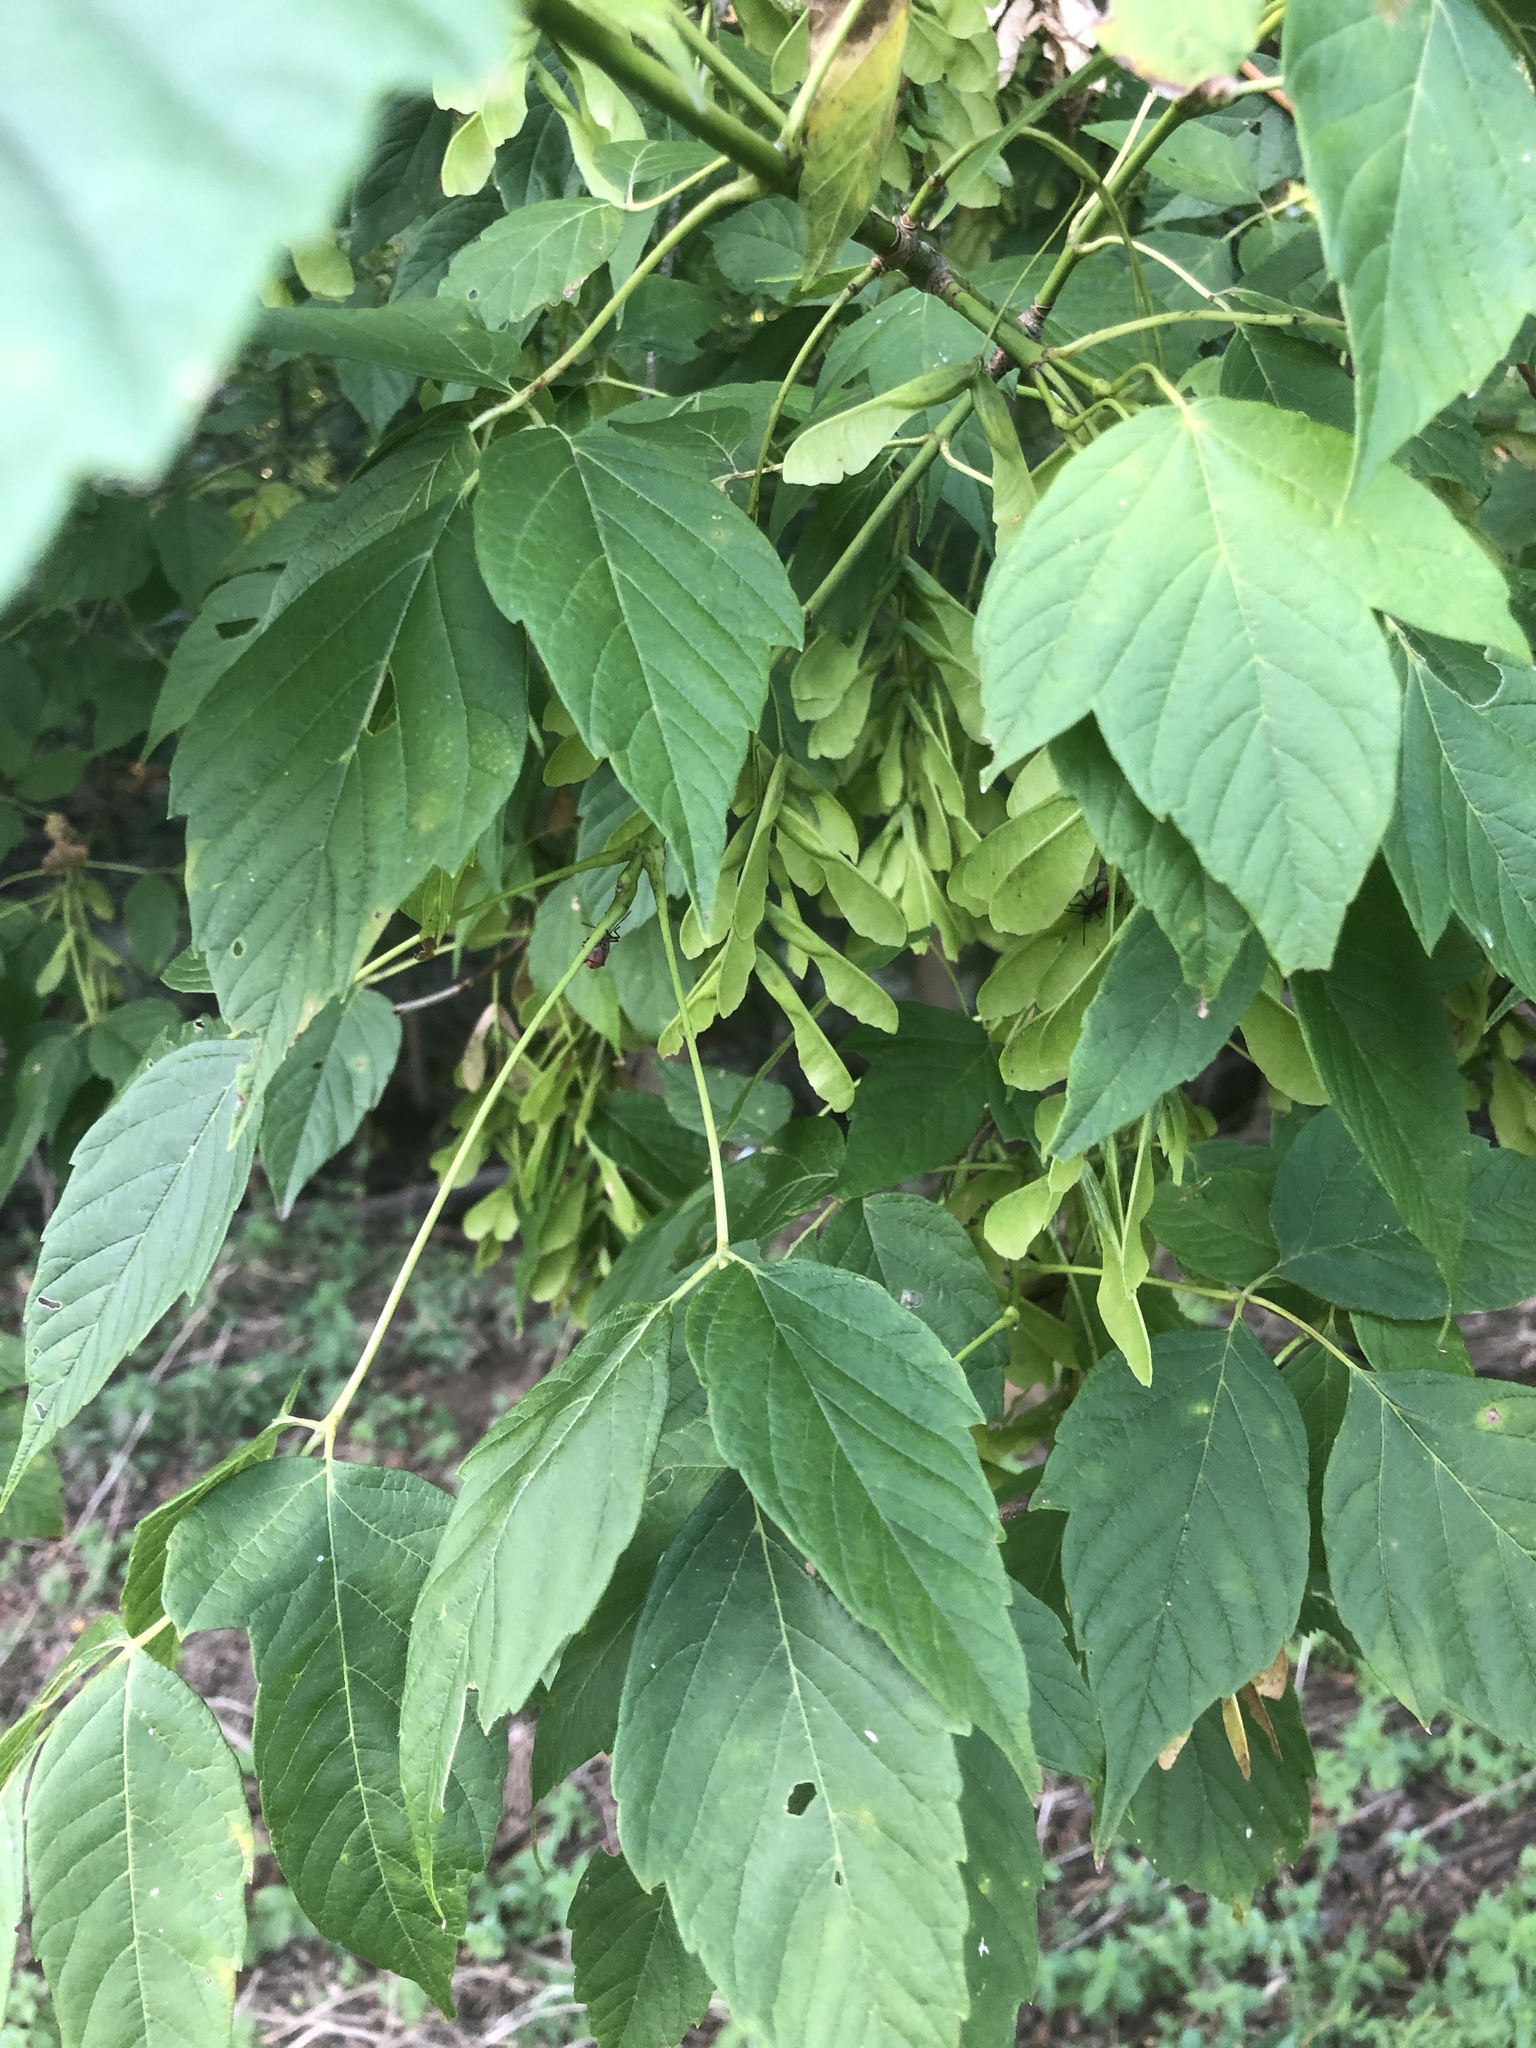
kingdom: Plantae
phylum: Tracheophyta
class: Magnoliopsida
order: Sapindales
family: Sapindaceae
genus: Acer
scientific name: Acer negundo
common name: Ashleaf maple
